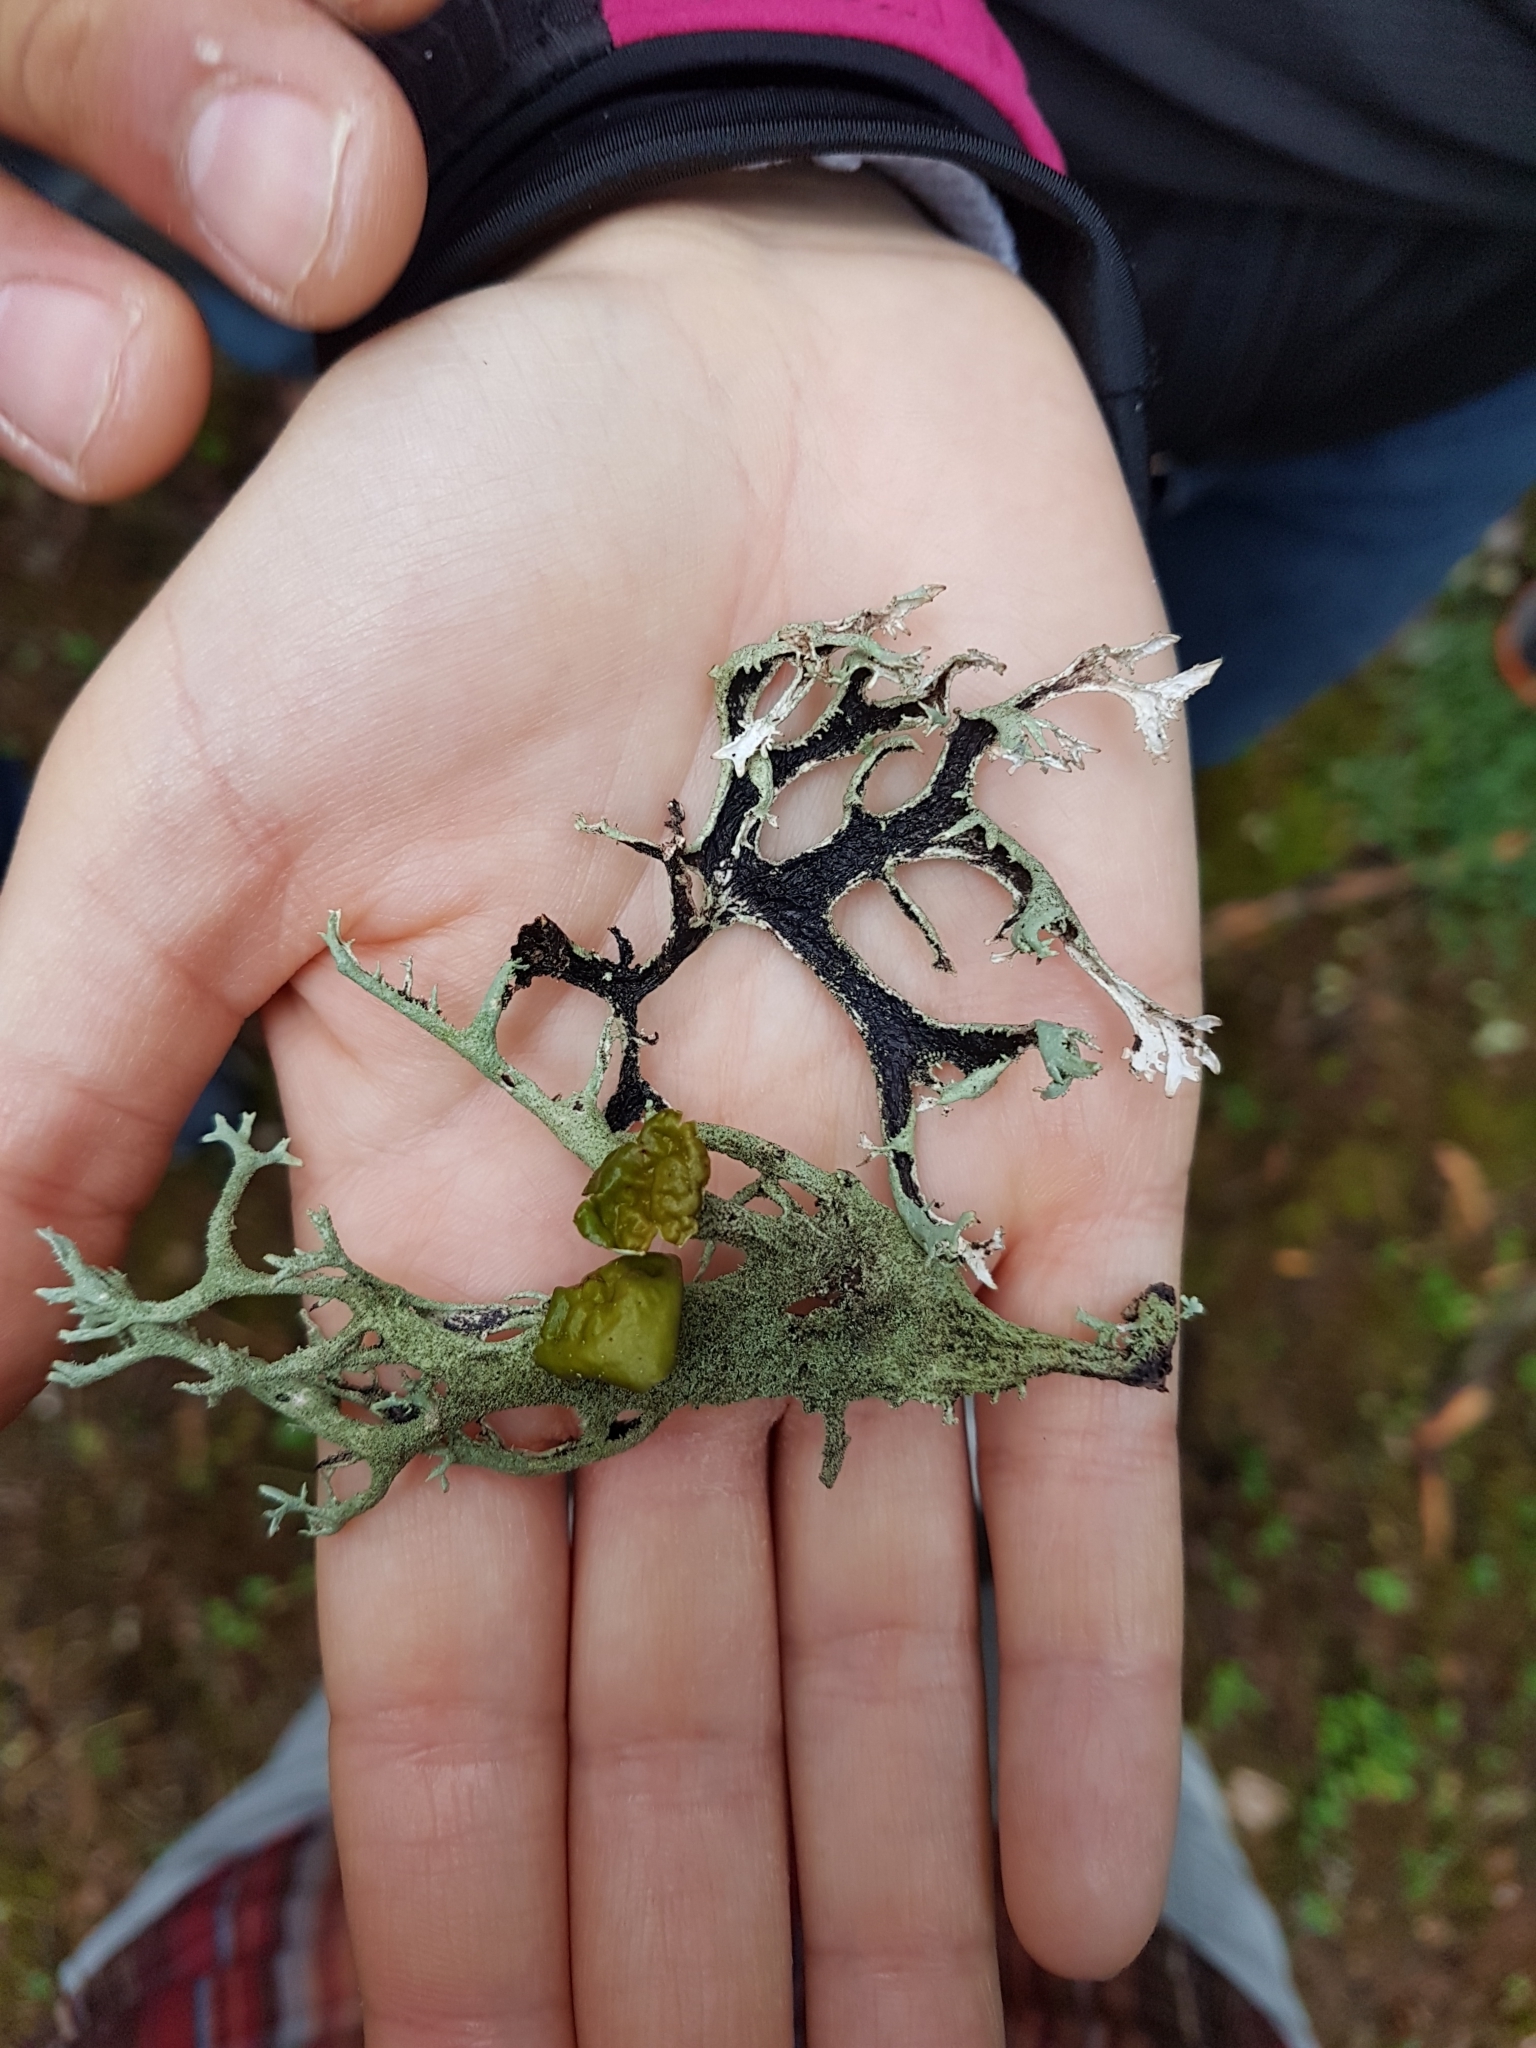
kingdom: Fungi
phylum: Ascomycota
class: Lecanoromycetes
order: Lecanorales
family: Parmeliaceae
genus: Pseudevernia
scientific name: Pseudevernia furfuracea
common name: Tree moss
